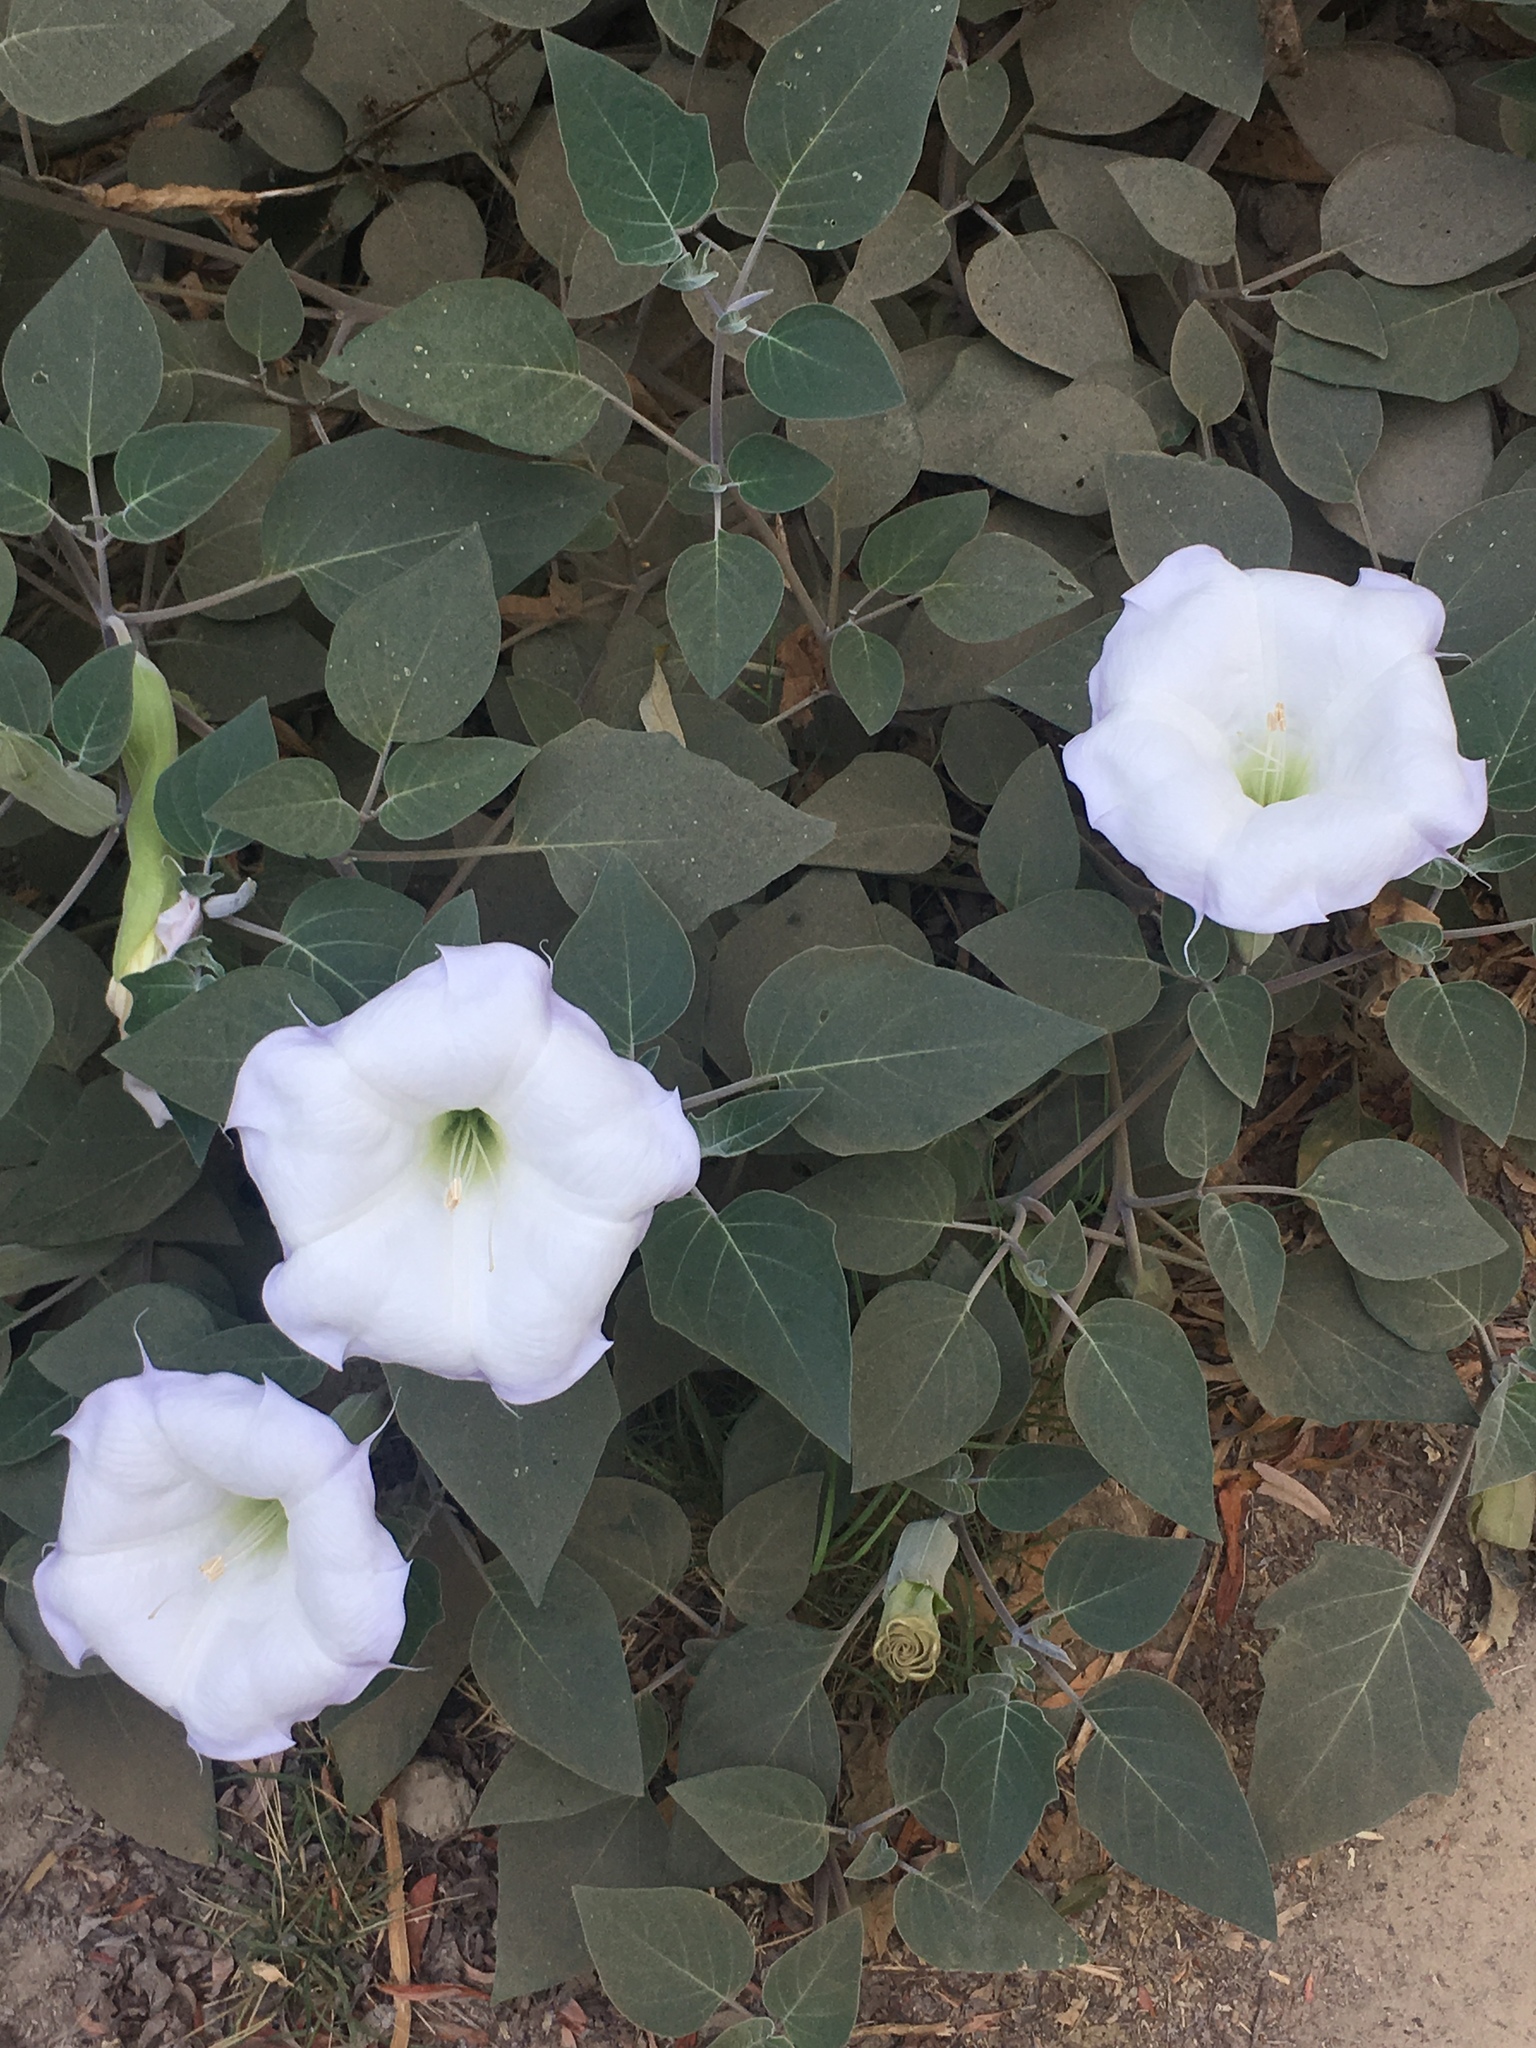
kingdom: Plantae
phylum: Tracheophyta
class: Magnoliopsida
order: Solanales
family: Solanaceae
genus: Datura
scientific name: Datura wrightii
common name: Sacred thorn-apple
